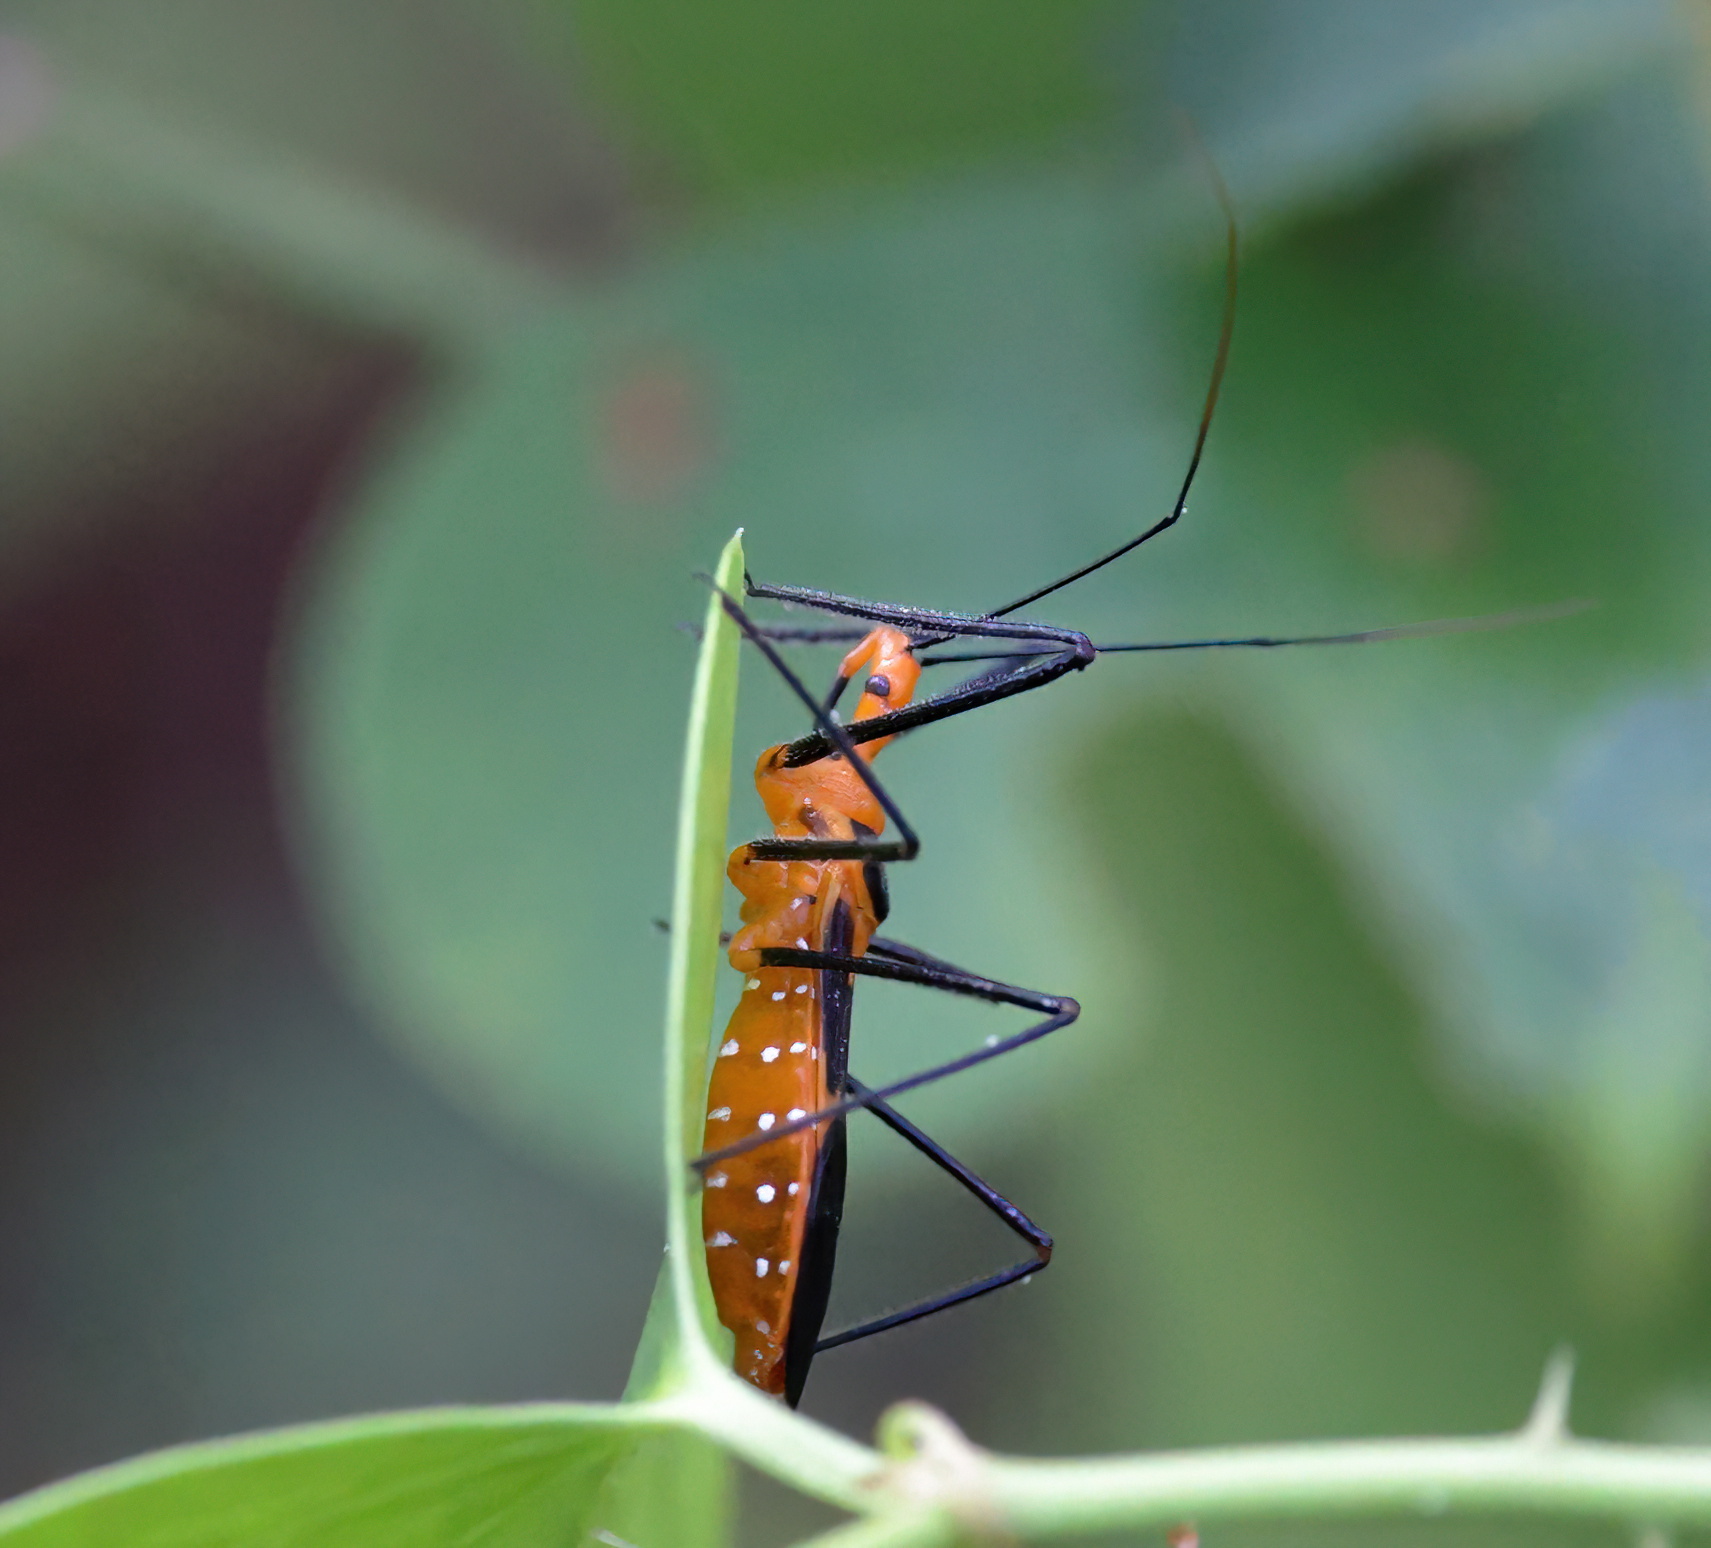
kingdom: Animalia
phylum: Arthropoda
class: Insecta
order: Hemiptera
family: Reduviidae
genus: Zelus
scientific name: Zelus longipes
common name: Milkweed assassin bug
